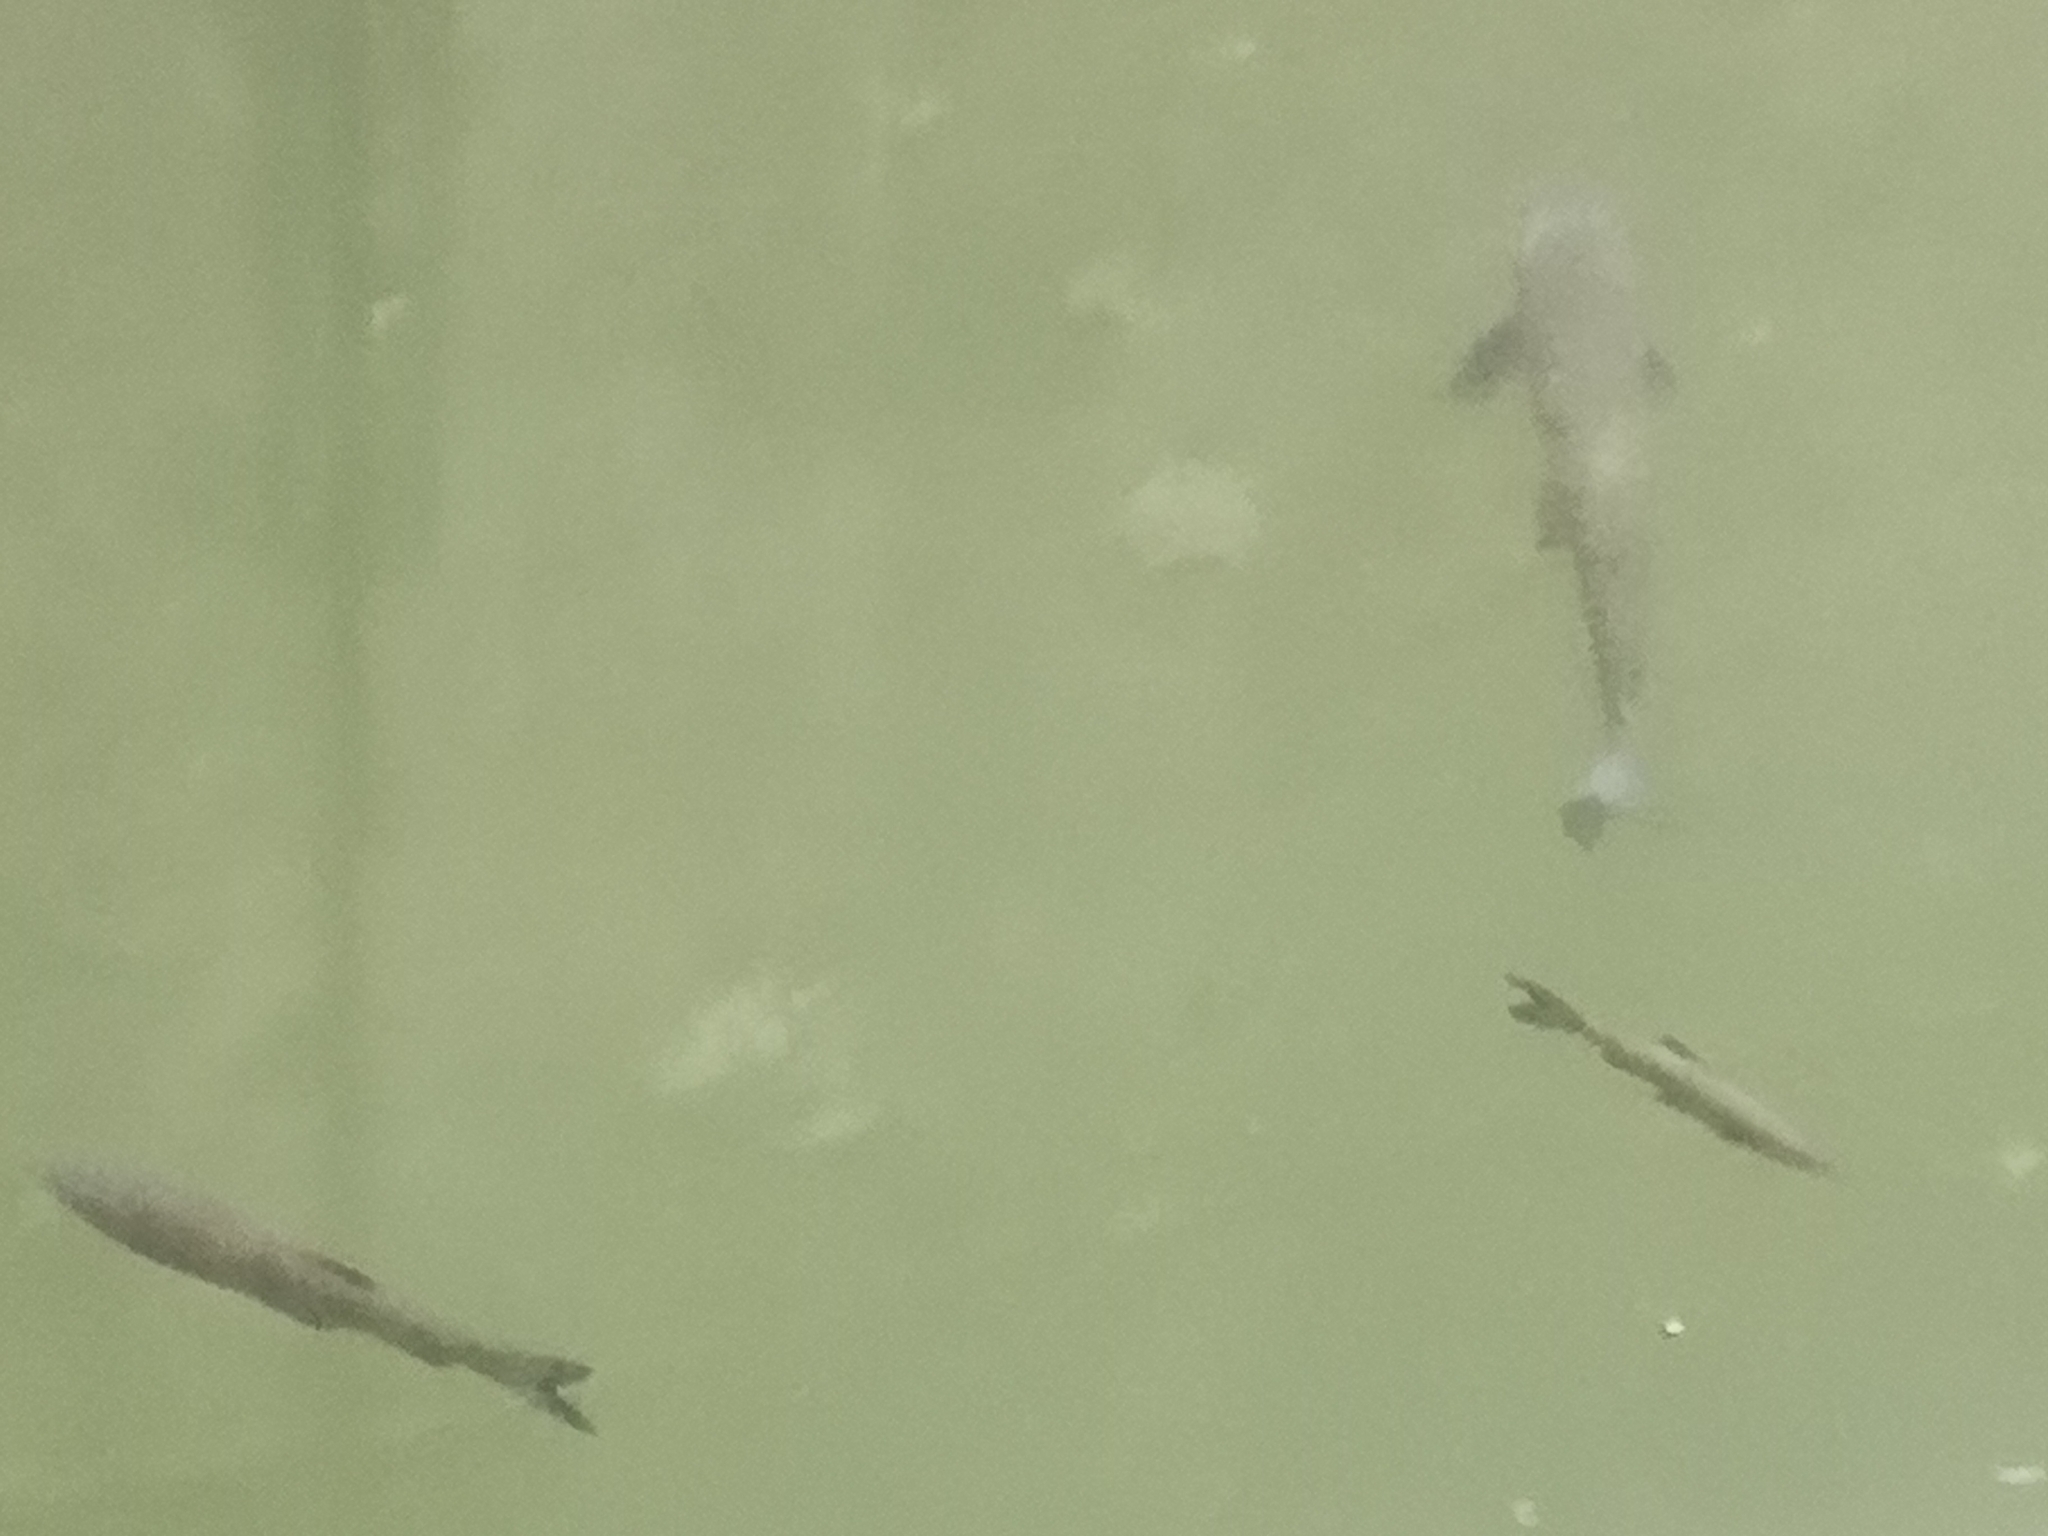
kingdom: Animalia
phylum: Chordata
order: Cypriniformes
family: Cyprinidae
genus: Squalius
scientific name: Squalius squalus
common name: Italian chub
